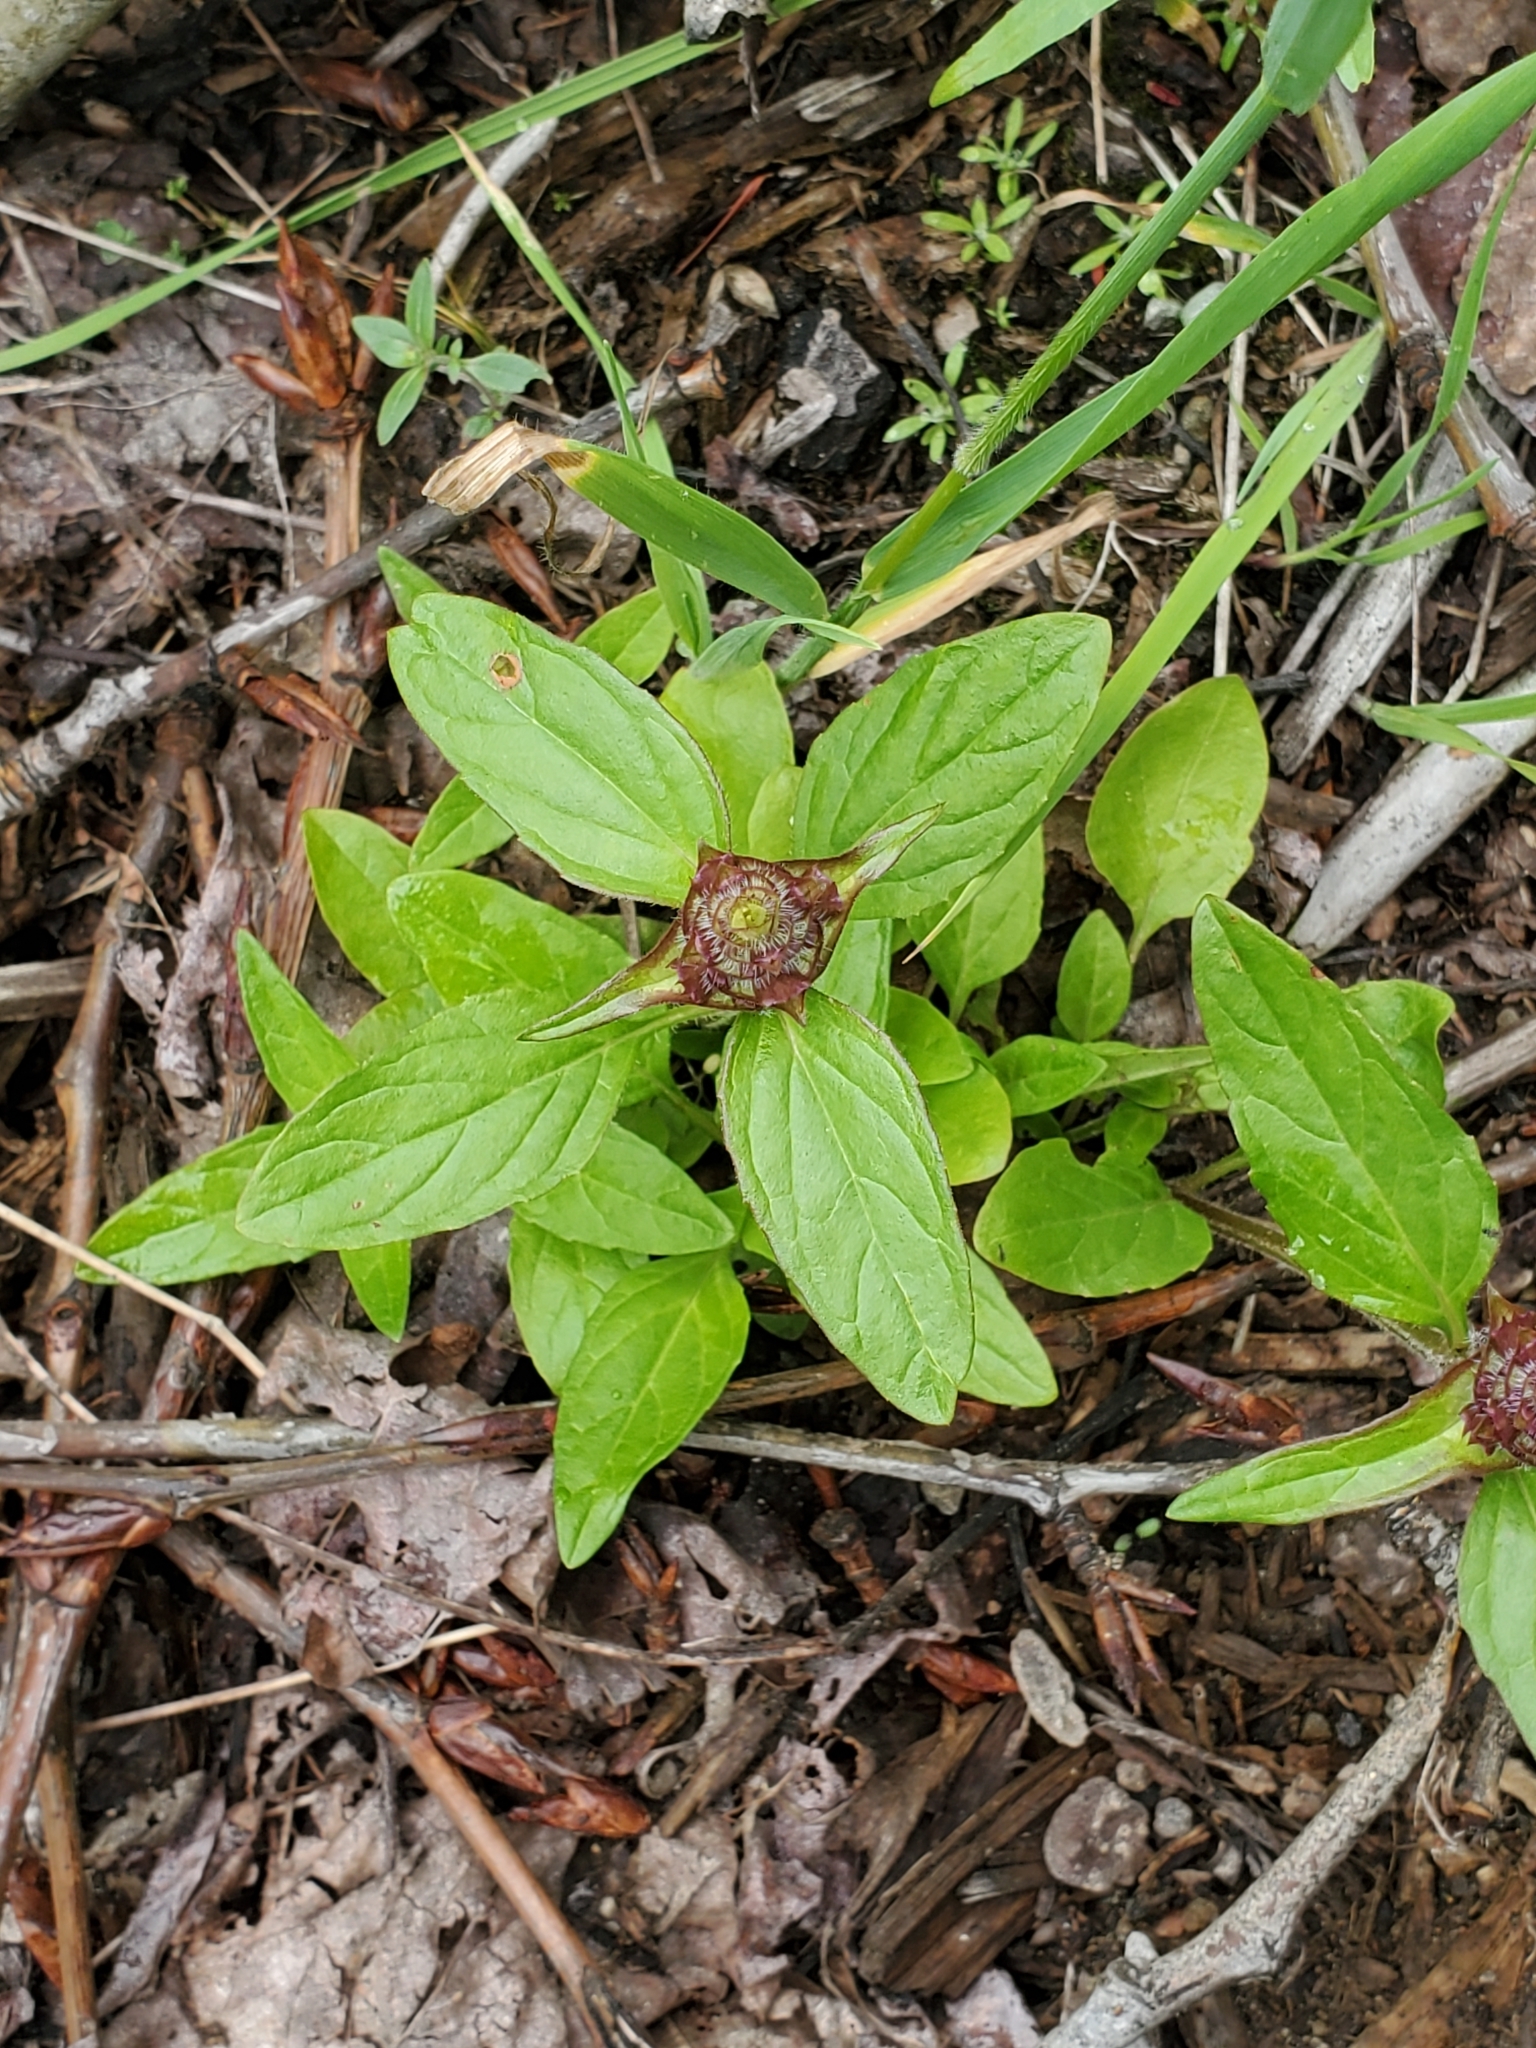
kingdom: Plantae
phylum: Tracheophyta
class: Magnoliopsida
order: Lamiales
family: Lamiaceae
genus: Prunella
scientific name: Prunella vulgaris
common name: Heal-all
